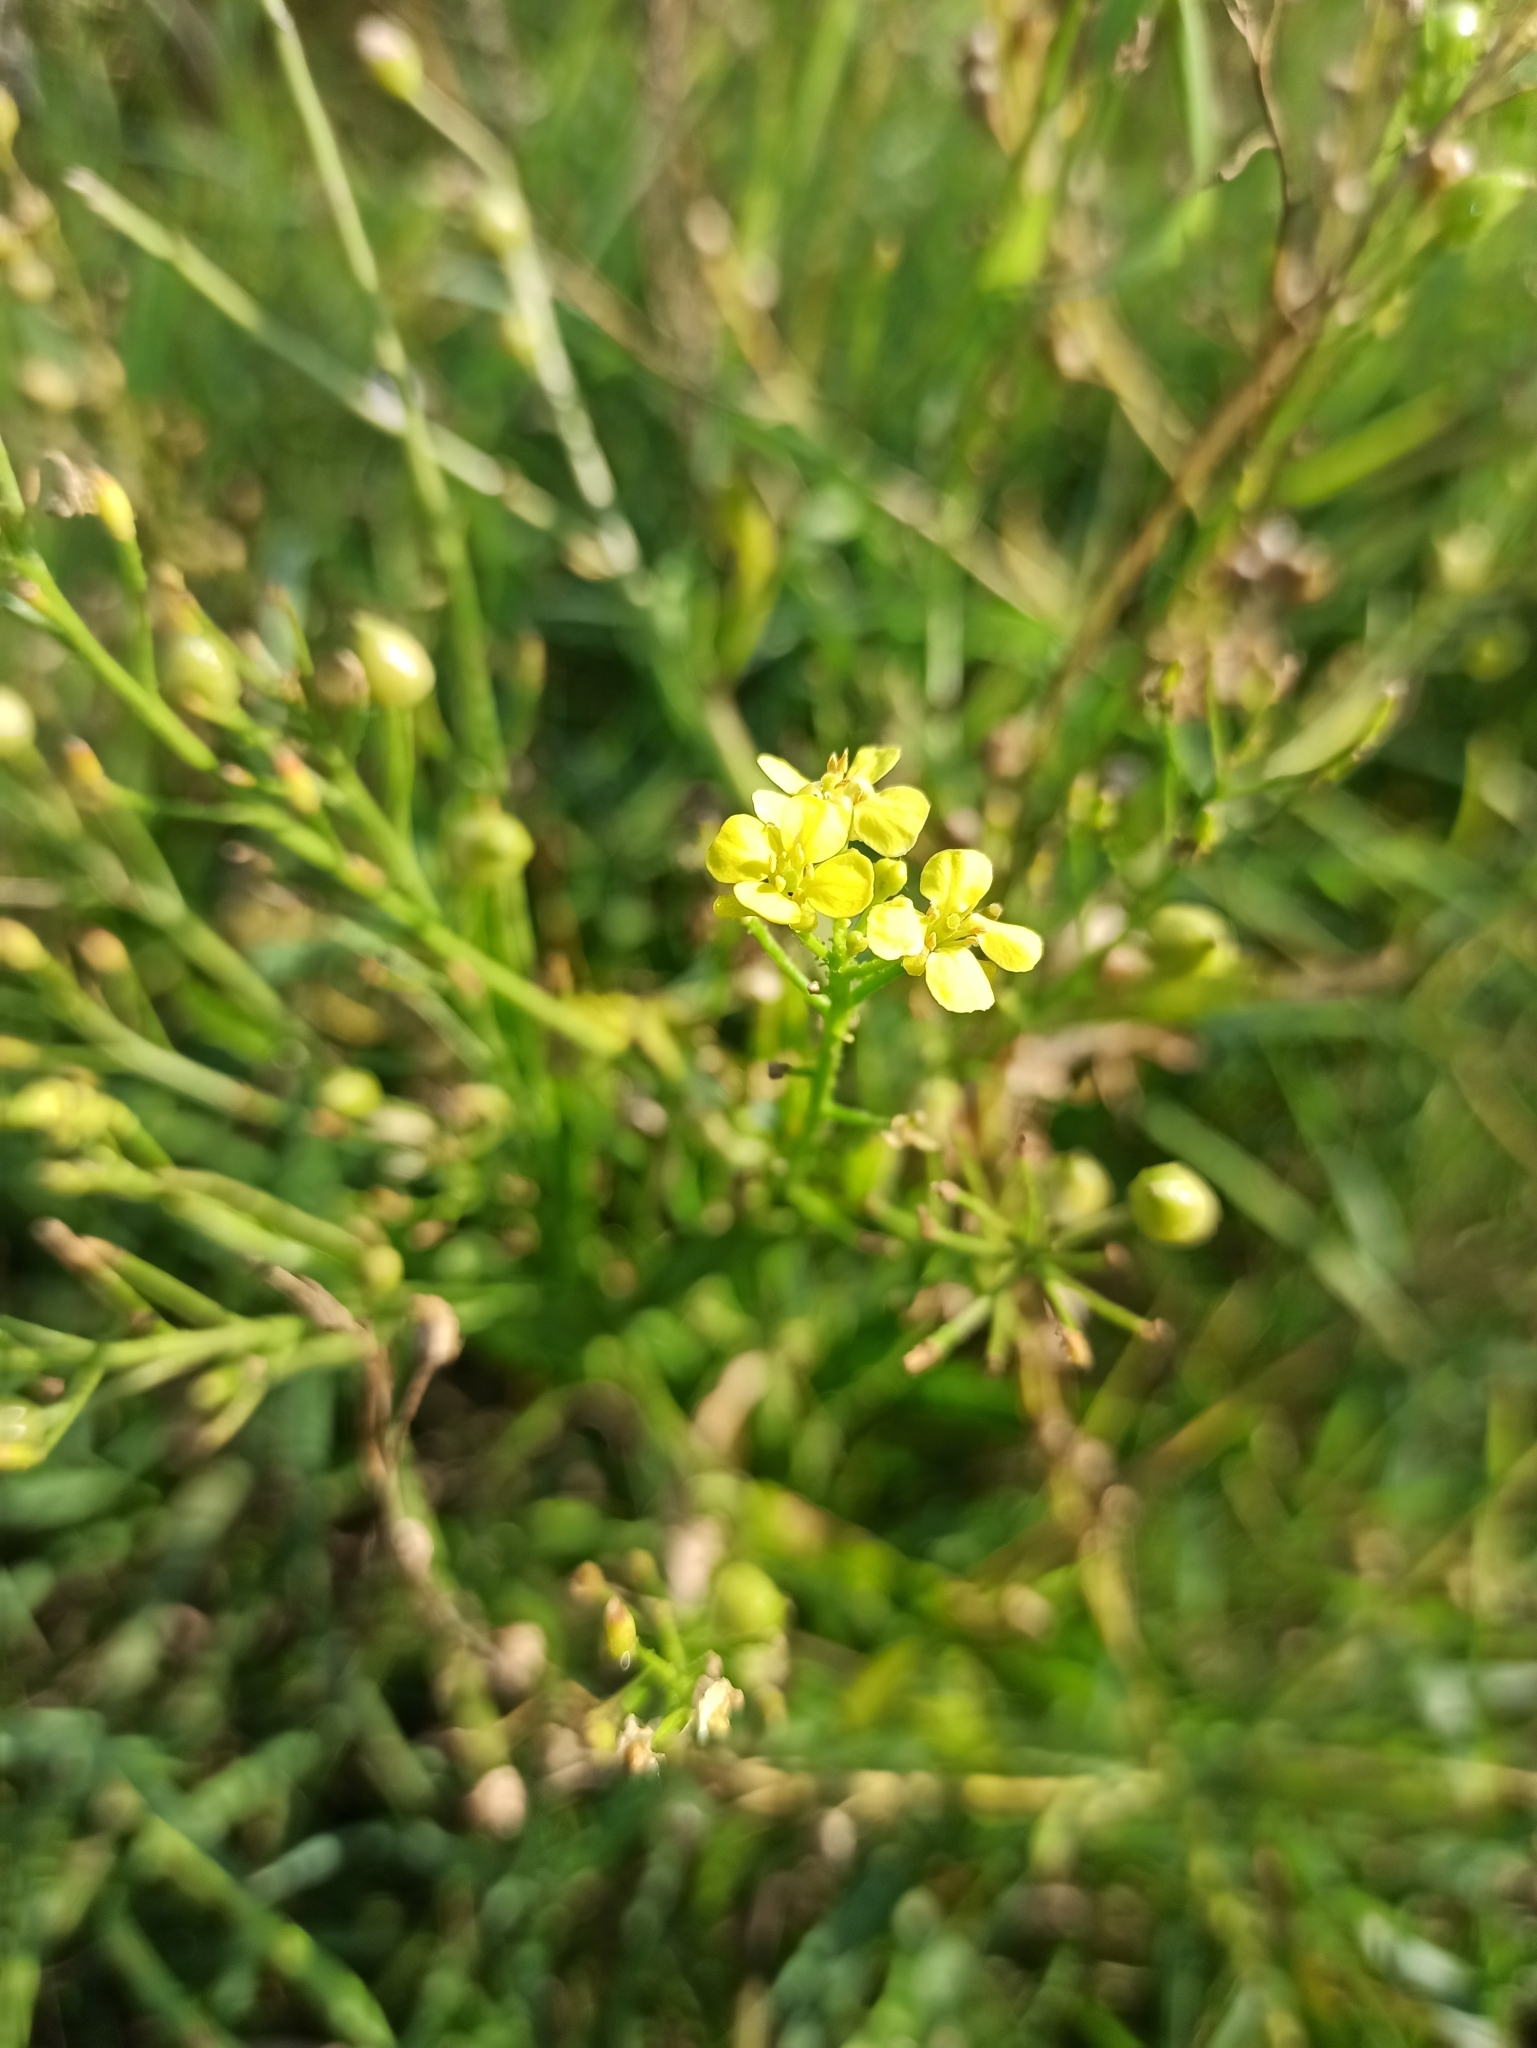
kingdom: Plantae
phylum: Tracheophyta
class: Magnoliopsida
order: Brassicales
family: Brassicaceae
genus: Bunias
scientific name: Bunias orientalis
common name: Warty-cabbage
